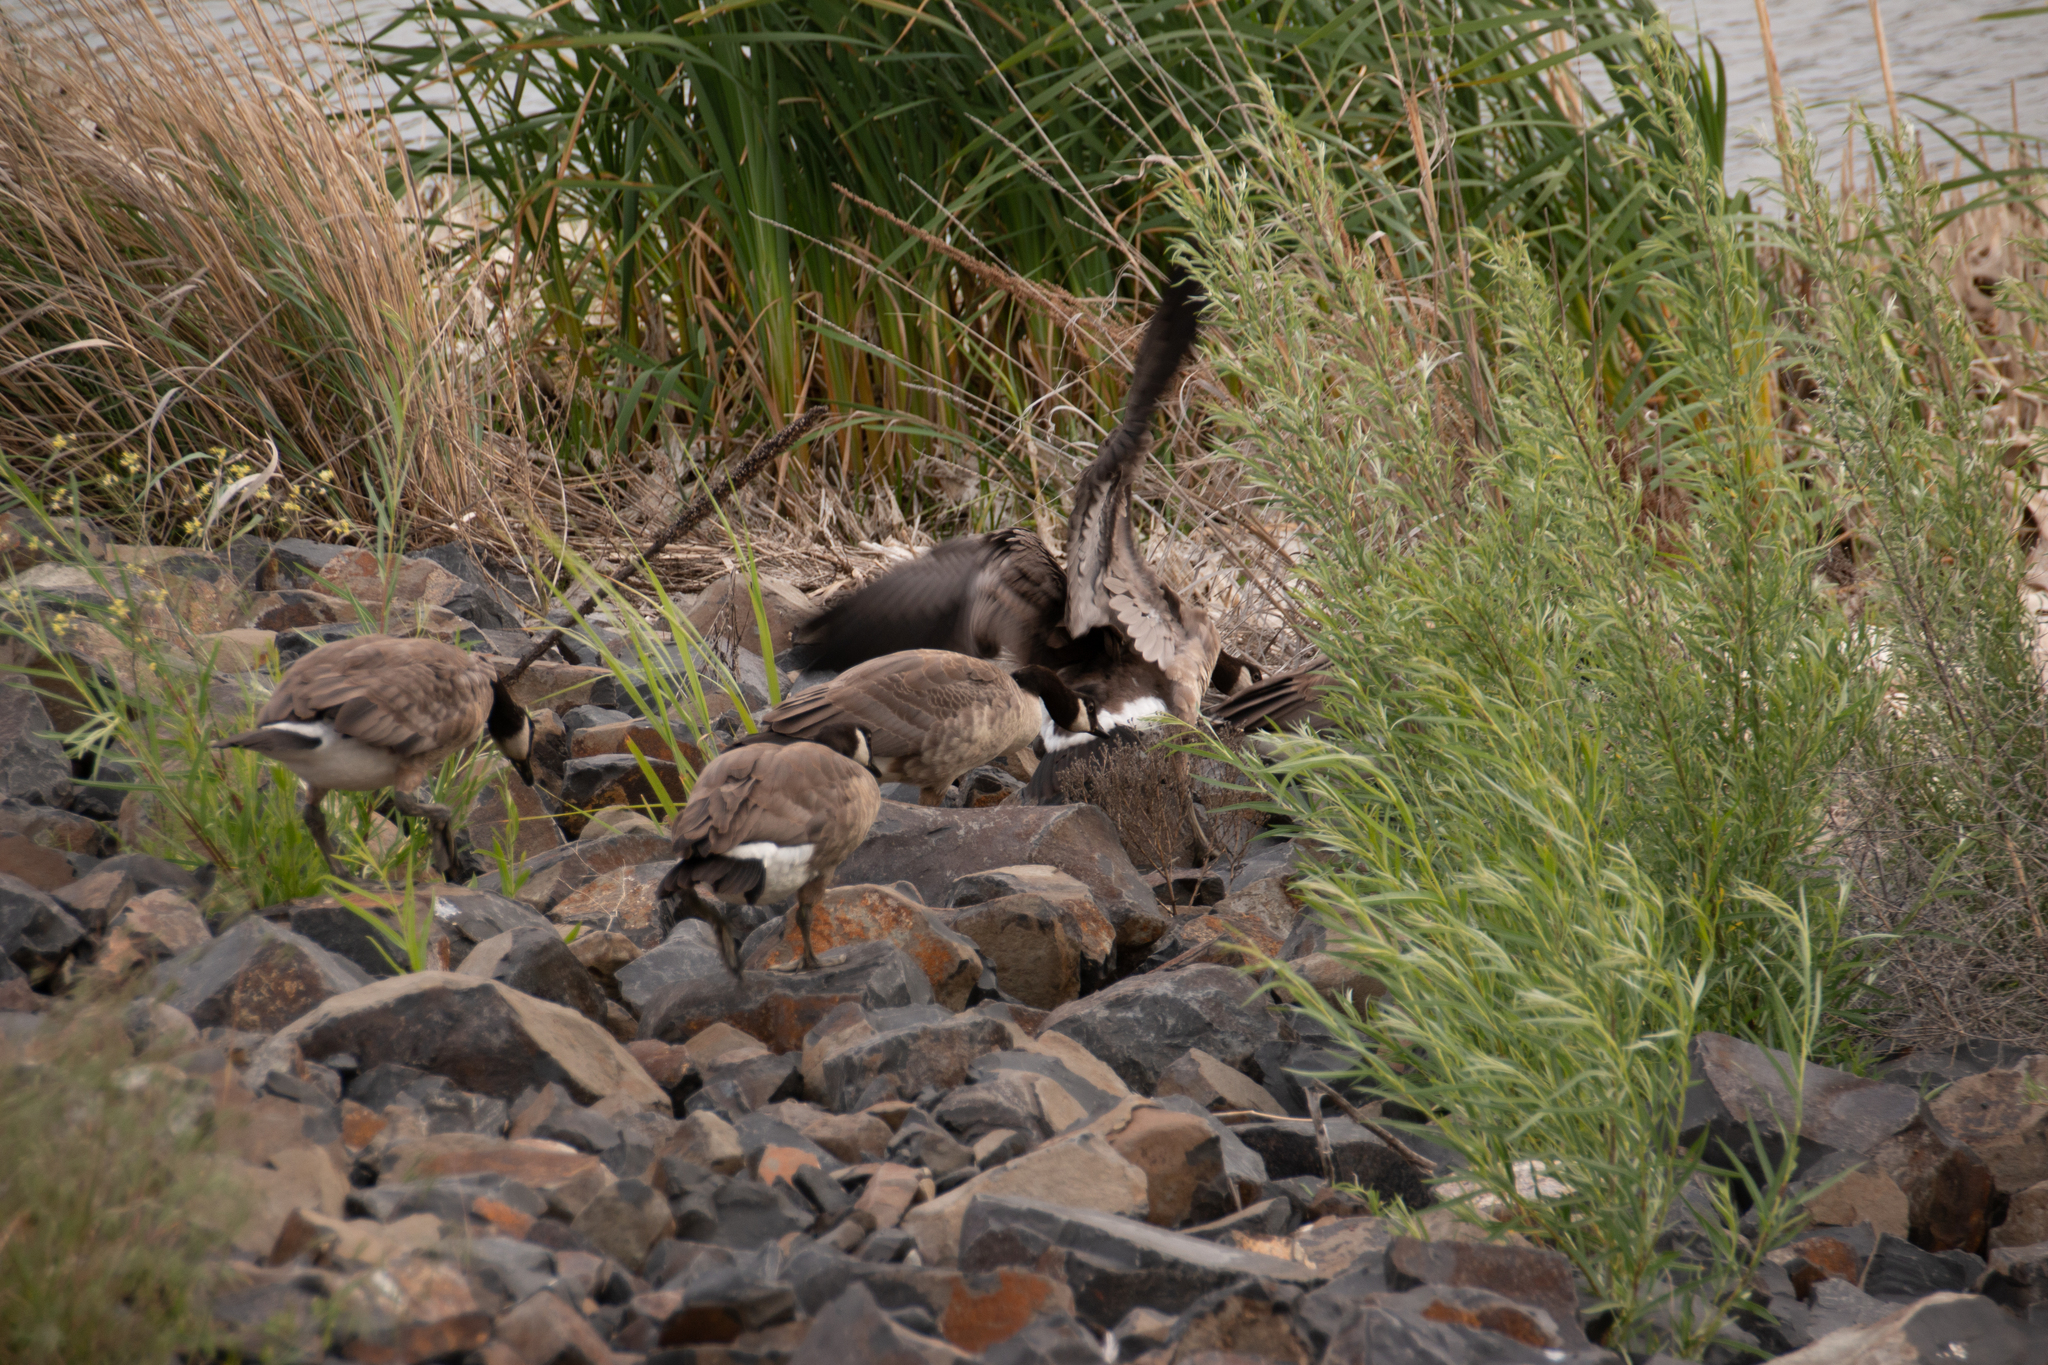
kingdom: Animalia
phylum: Chordata
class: Aves
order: Anseriformes
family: Anatidae
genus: Branta
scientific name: Branta canadensis
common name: Canada goose
